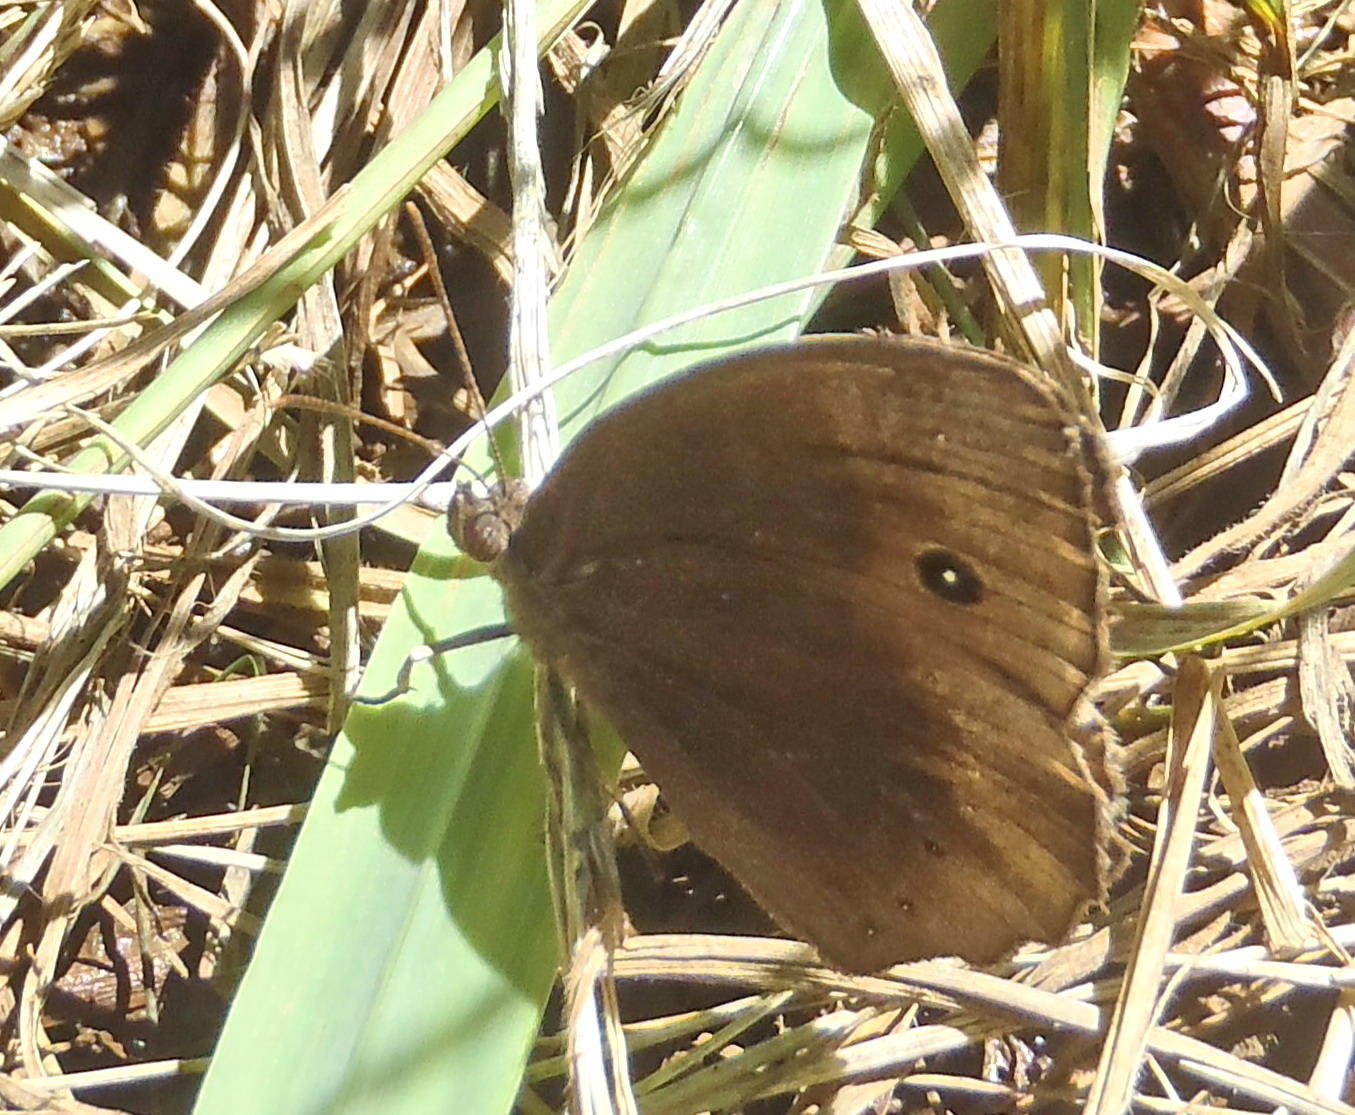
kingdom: Animalia
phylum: Arthropoda
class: Insecta
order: Lepidoptera
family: Nymphalidae
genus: Mycalesis
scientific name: Mycalesis rhacotis
